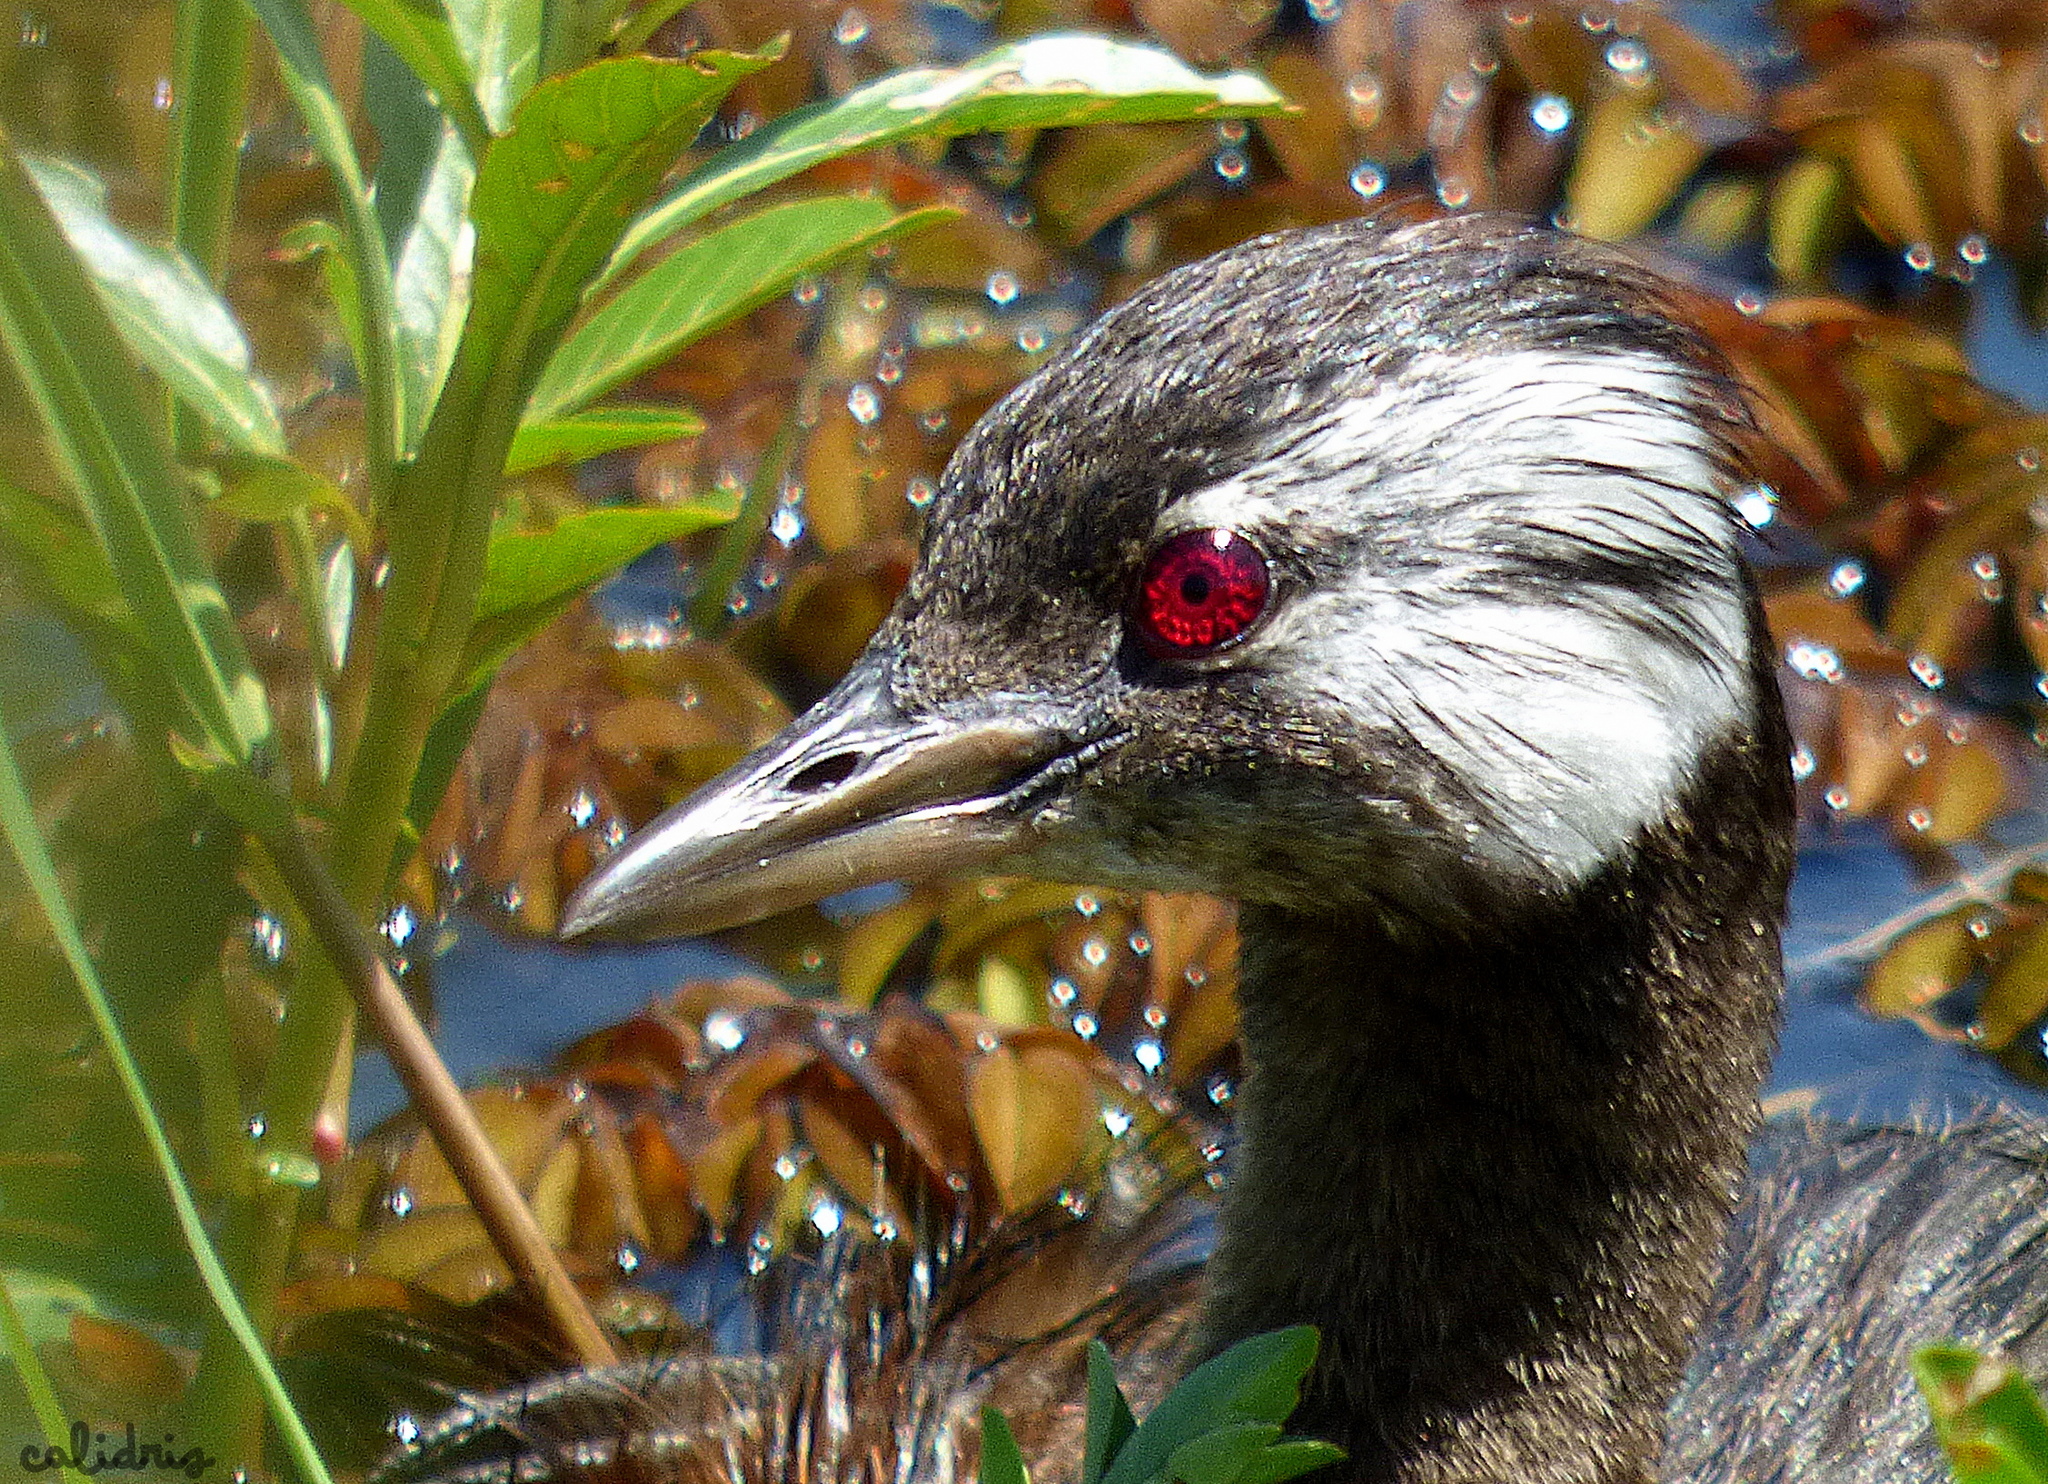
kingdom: Animalia
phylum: Chordata
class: Aves
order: Podicipediformes
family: Podicipedidae
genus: Rollandia
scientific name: Rollandia rolland
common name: White-tufted grebe
